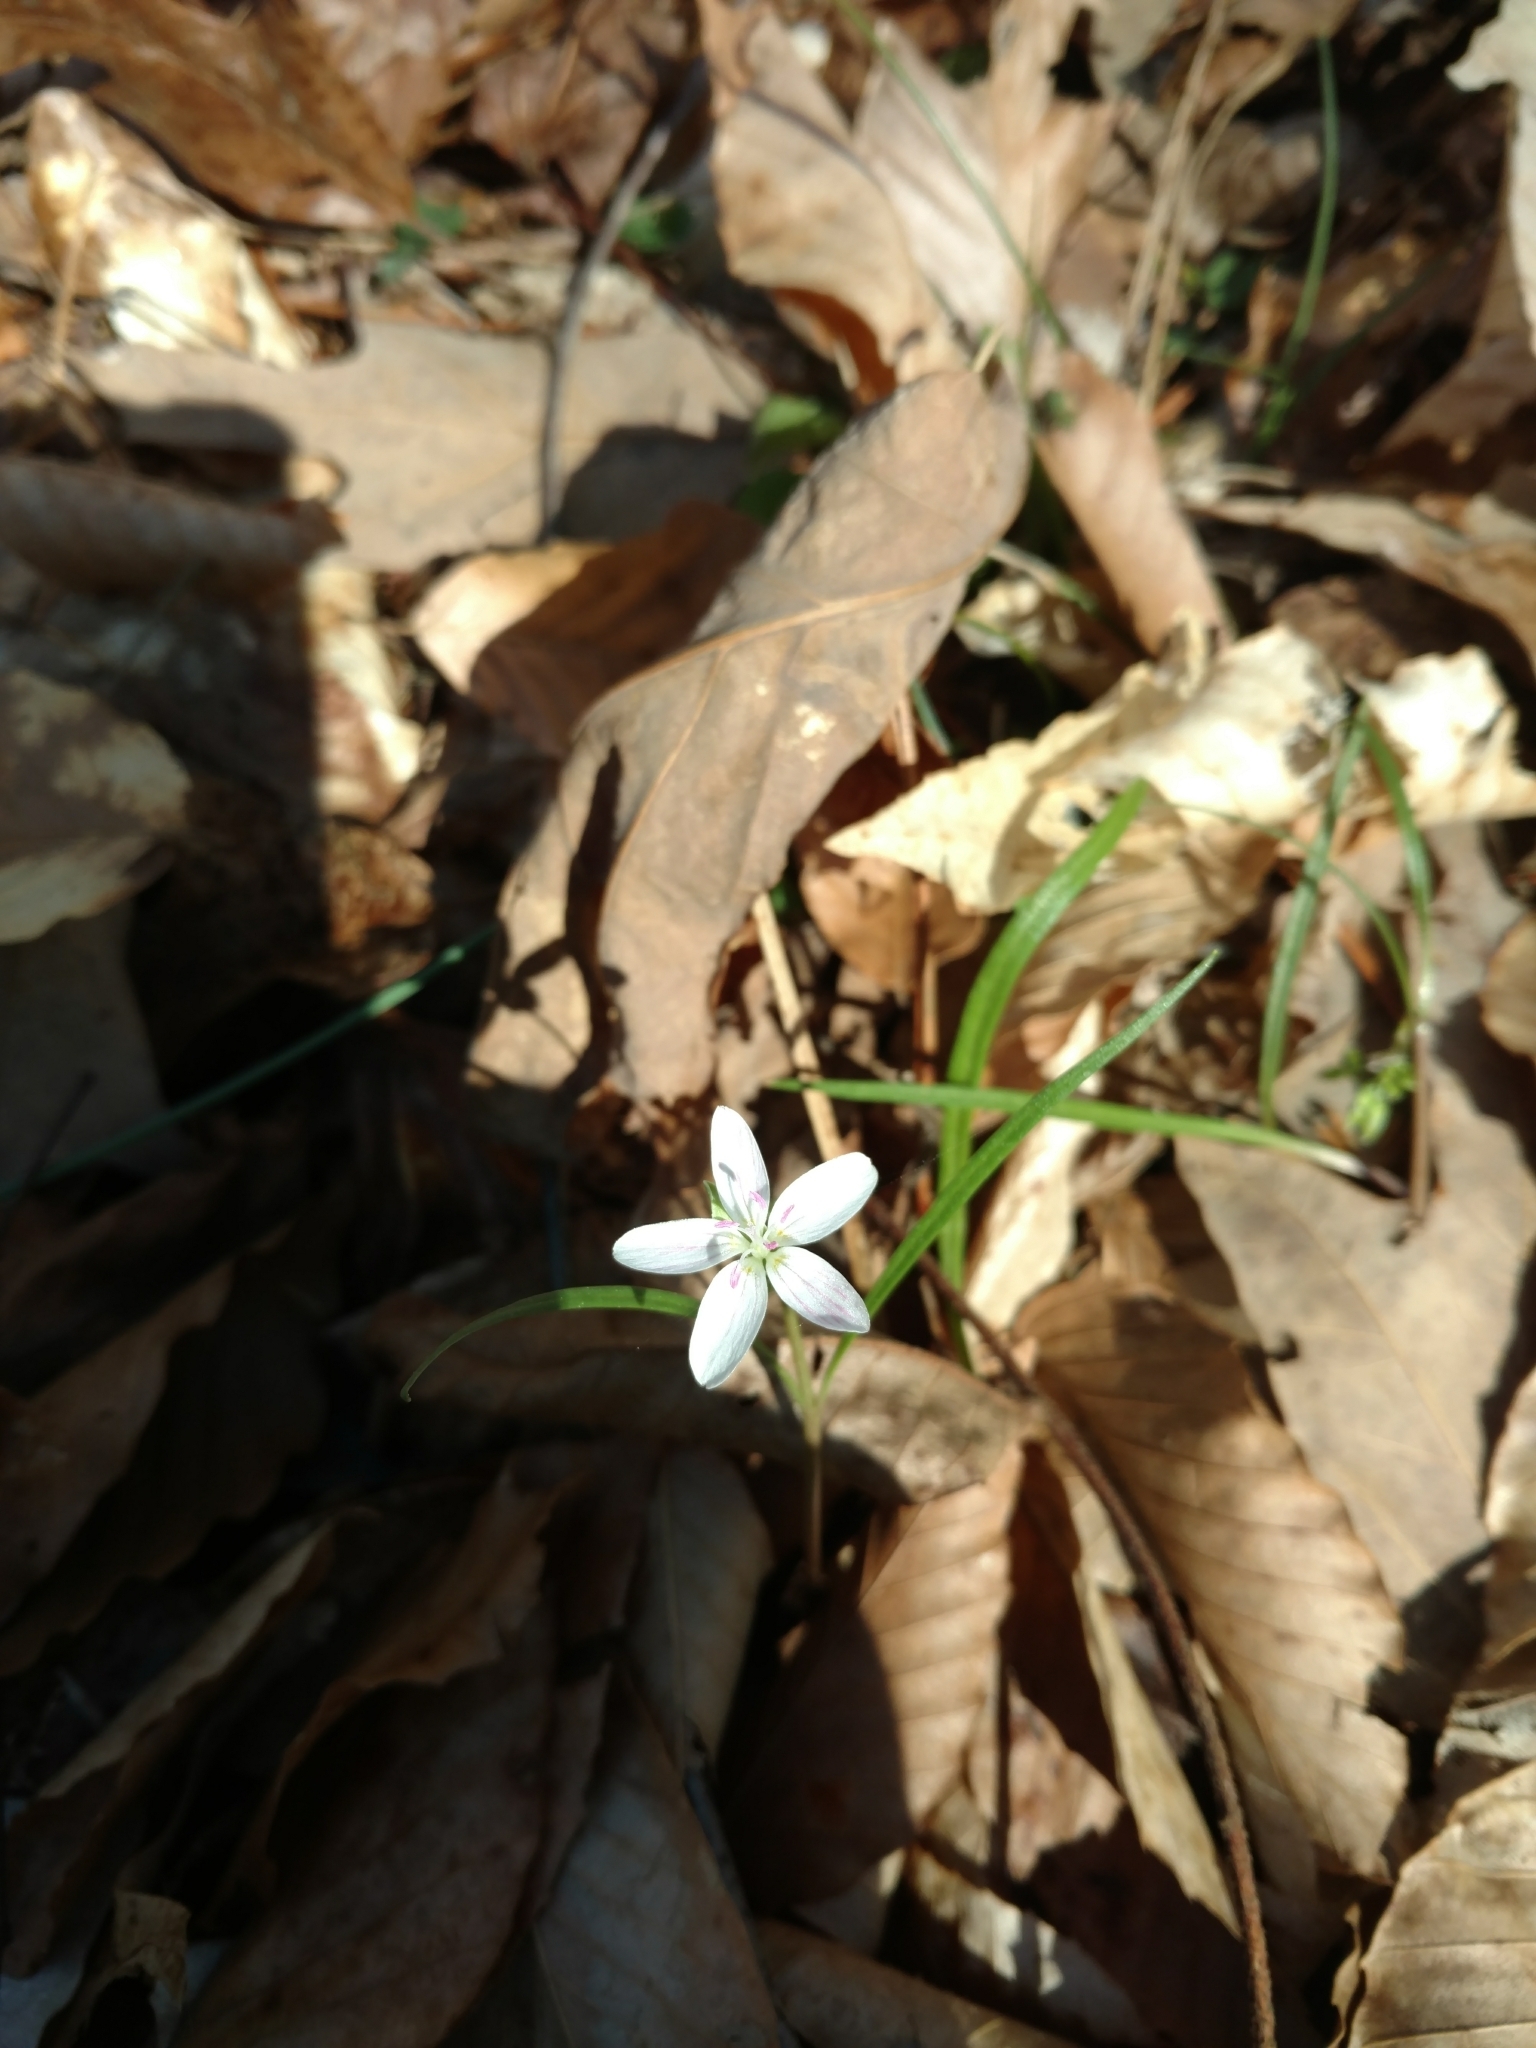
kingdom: Plantae
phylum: Tracheophyta
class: Magnoliopsida
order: Caryophyllales
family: Montiaceae
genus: Claytonia
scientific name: Claytonia virginica
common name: Virginia springbeauty
